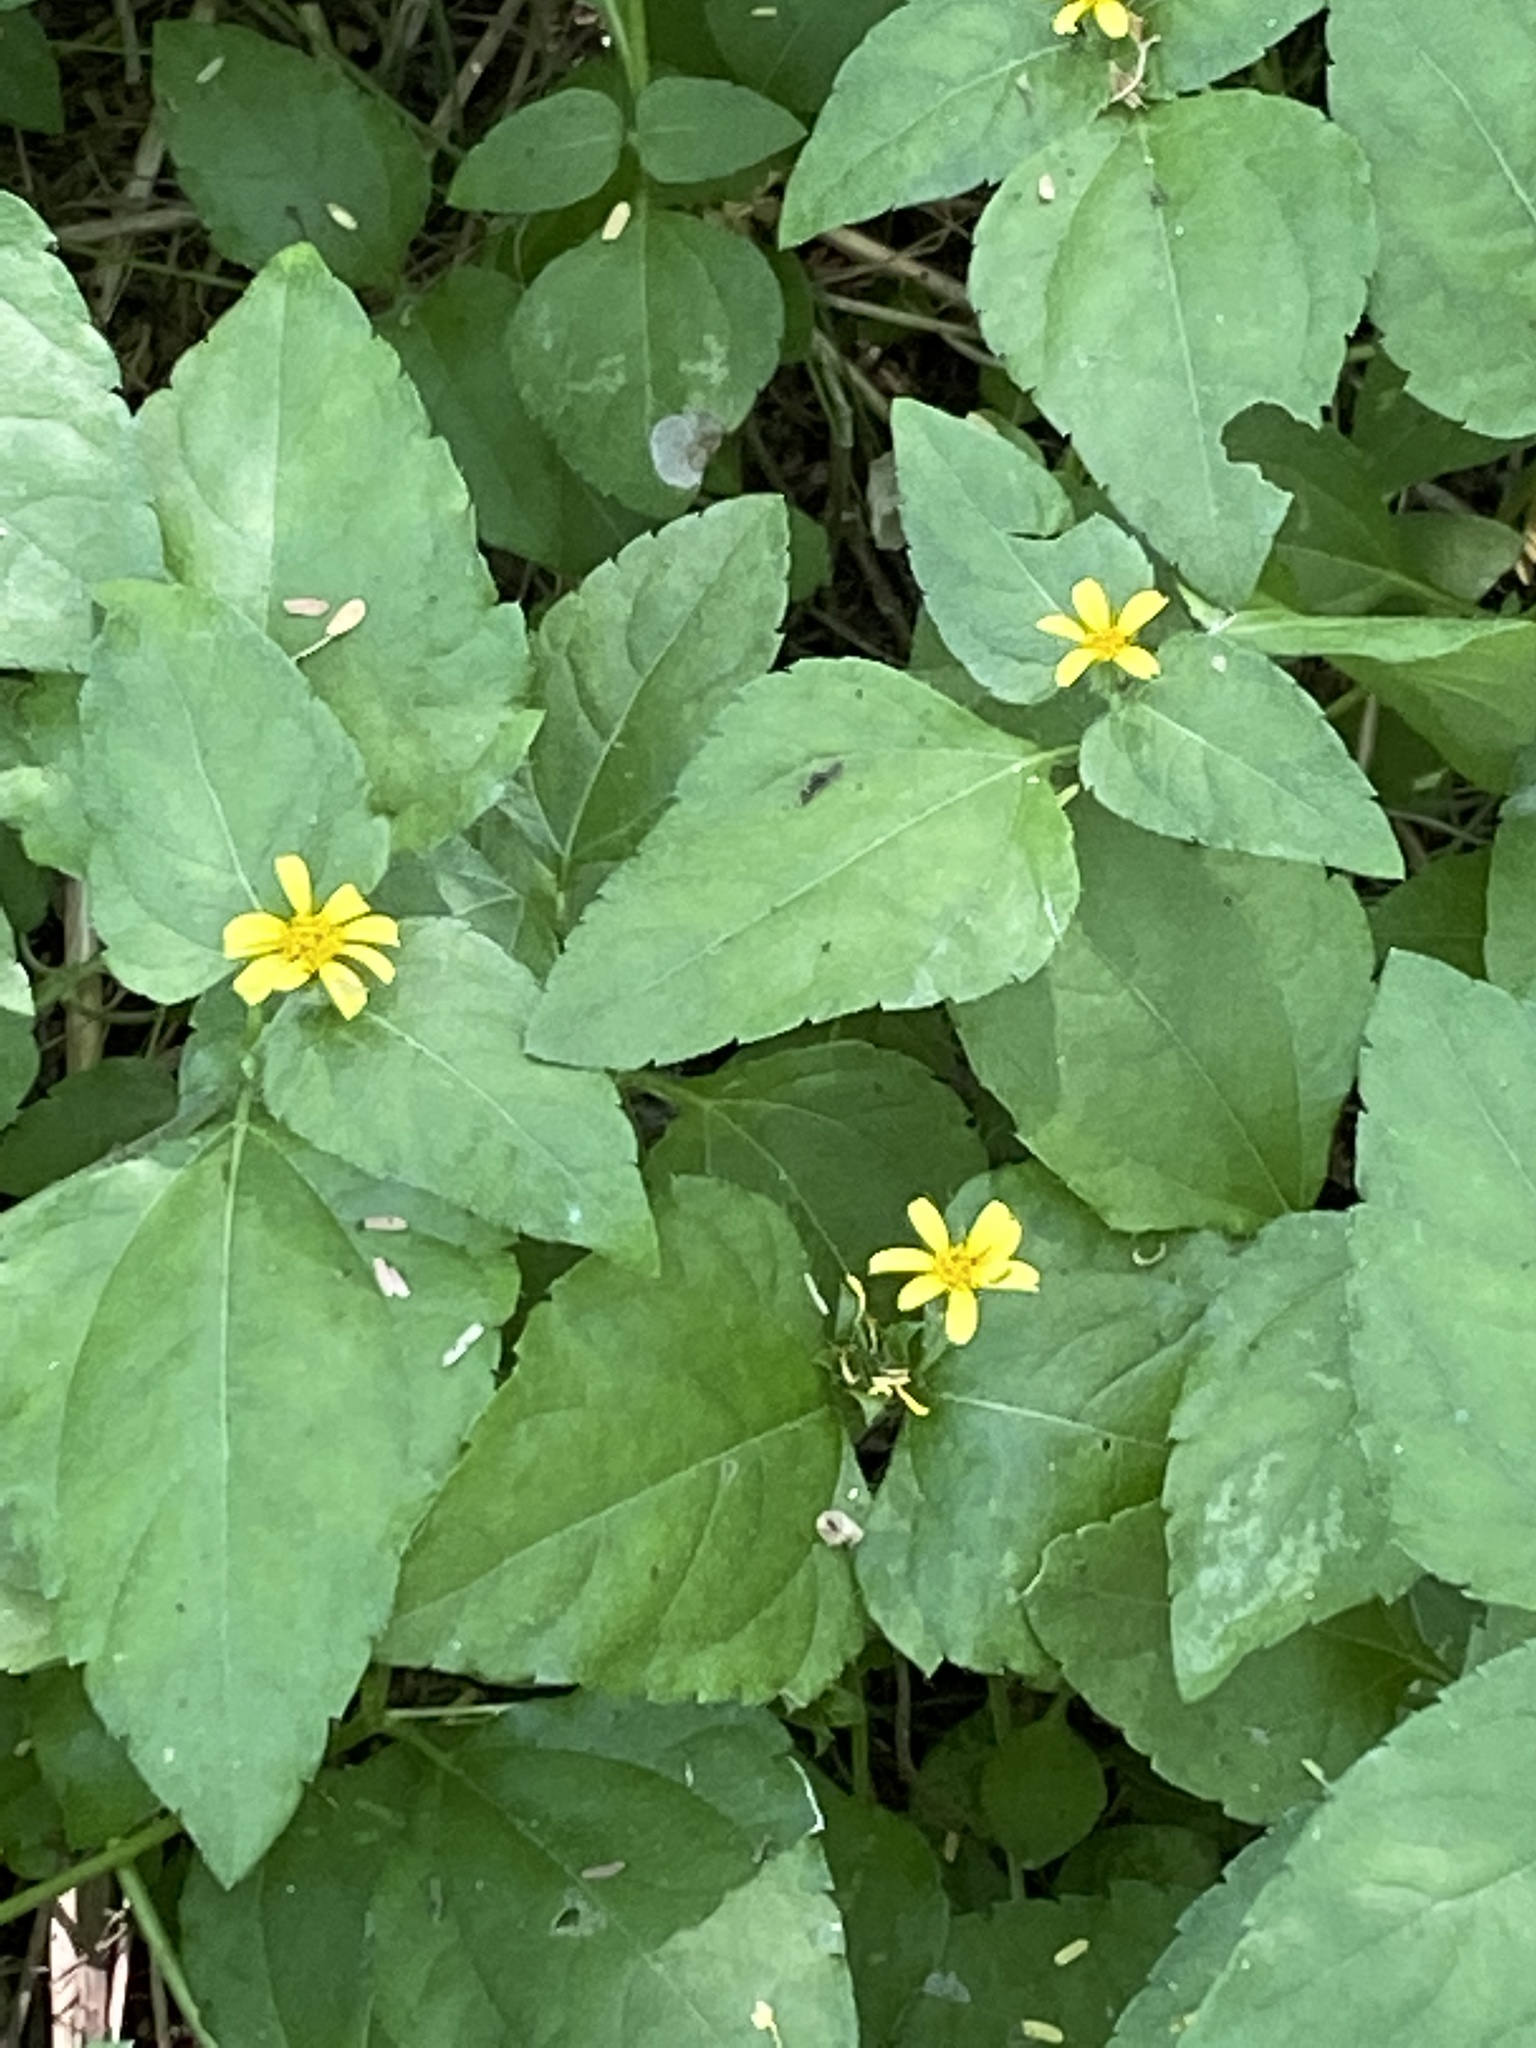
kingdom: Plantae
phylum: Tracheophyta
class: Magnoliopsida
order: Asterales
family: Asteraceae
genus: Calyptocarpus
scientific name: Calyptocarpus vialis
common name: Straggler daisy
